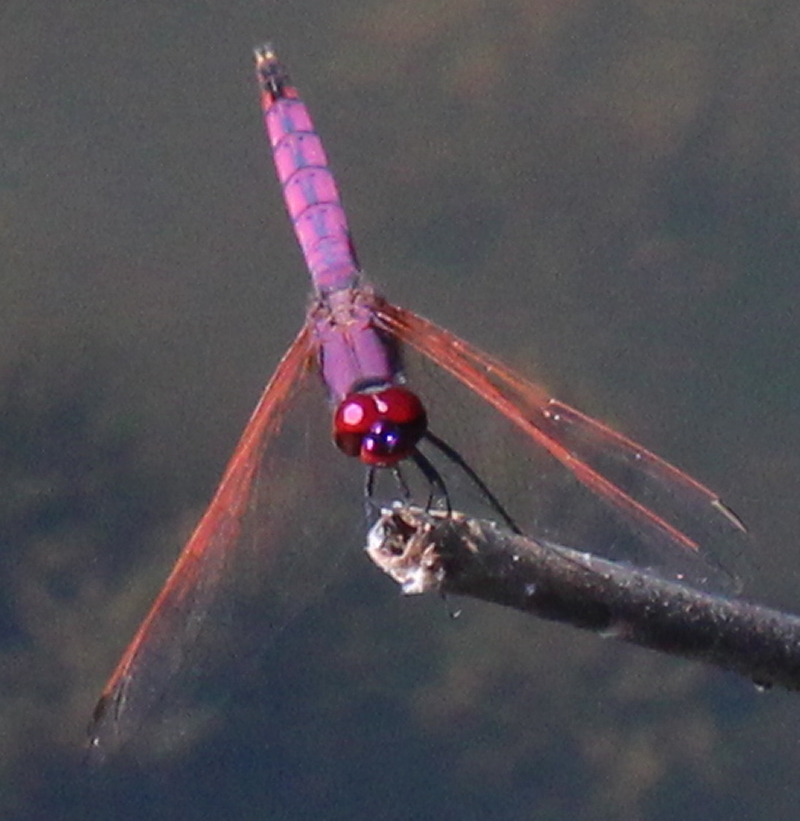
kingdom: Animalia
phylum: Arthropoda
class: Insecta
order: Odonata
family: Libellulidae
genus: Trithemis
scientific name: Trithemis annulata
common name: Violet dropwing
